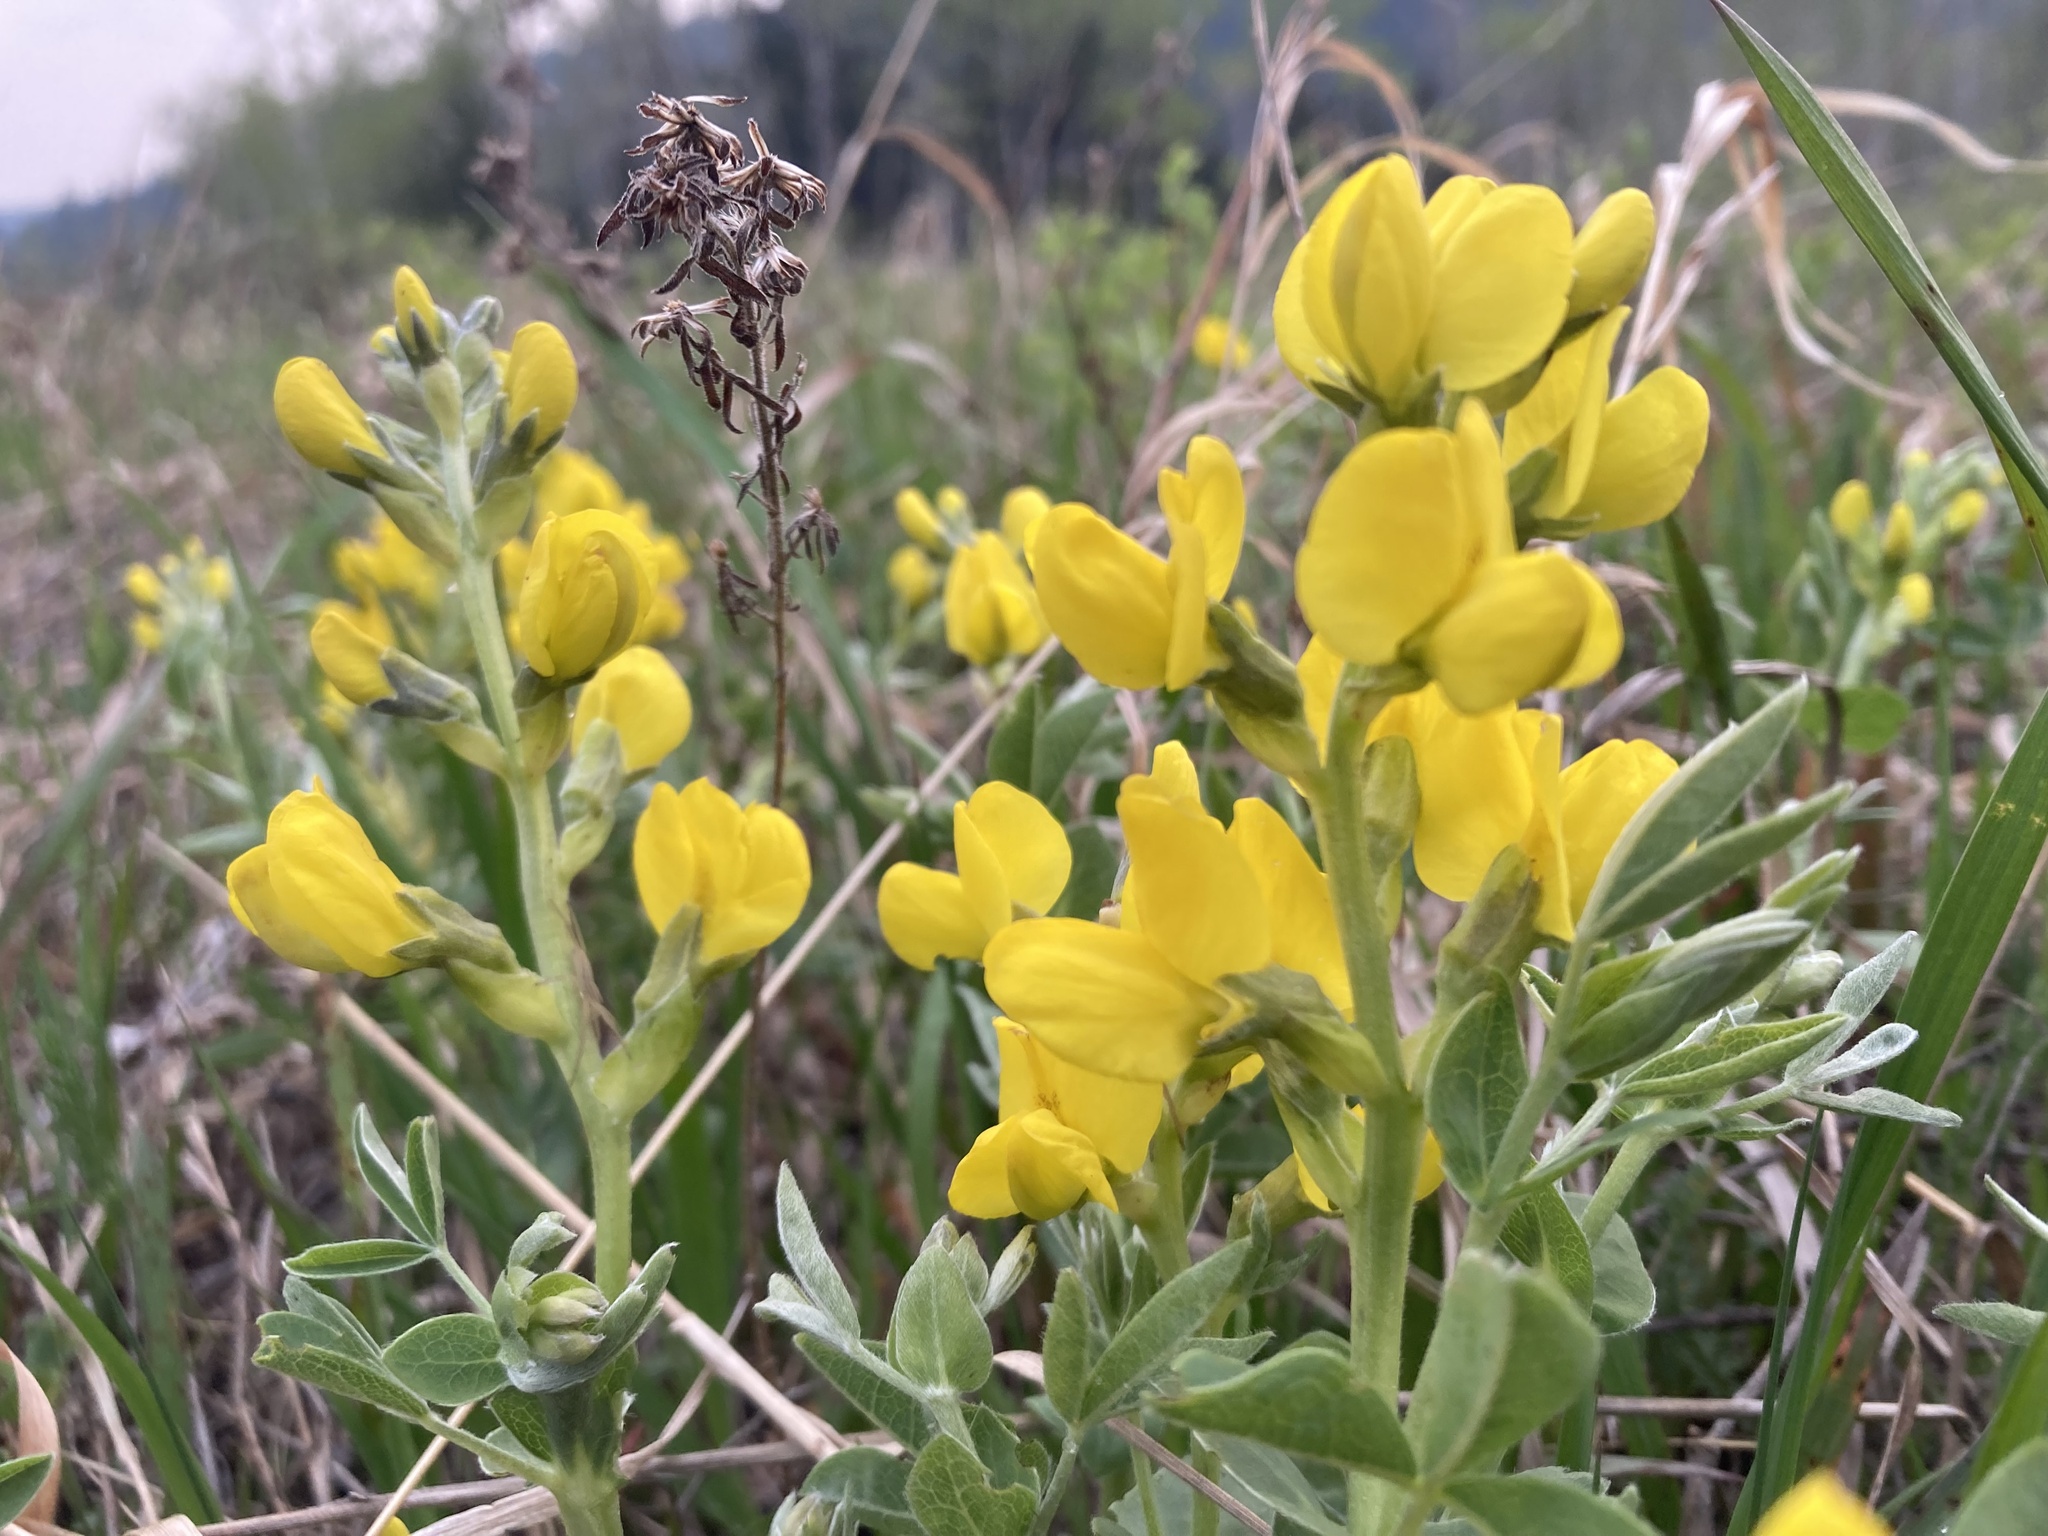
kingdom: Plantae
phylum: Tracheophyta
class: Magnoliopsida
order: Fabales
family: Fabaceae
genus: Thermopsis
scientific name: Thermopsis rhombifolia
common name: Circle-pod-pea
